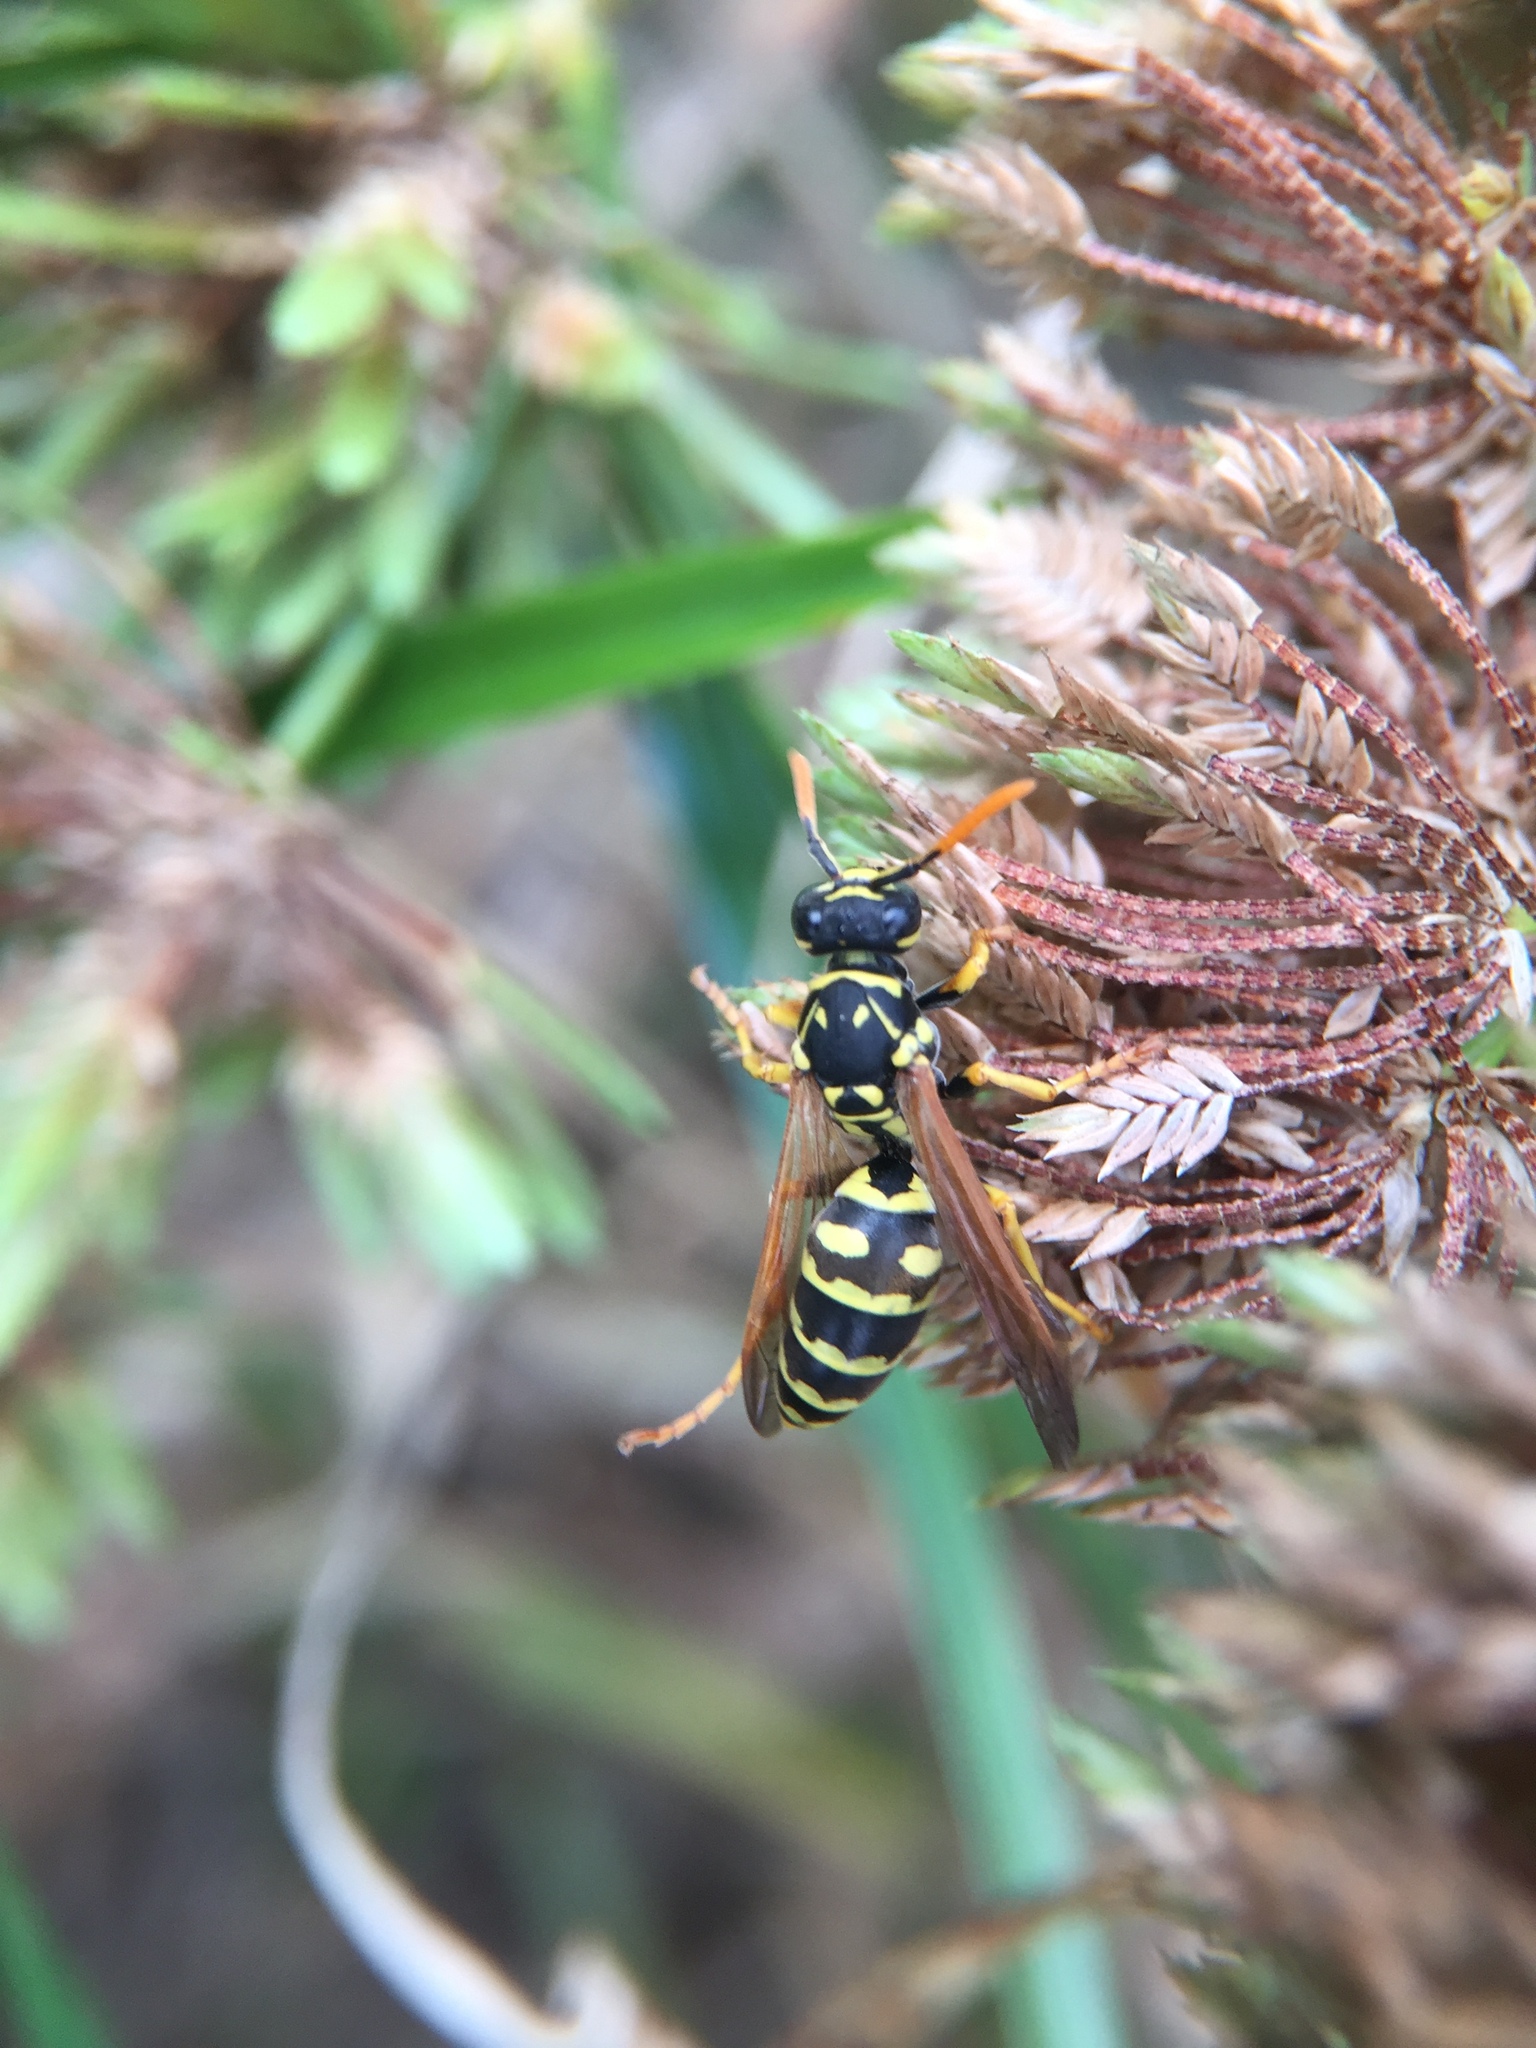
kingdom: Animalia
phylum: Arthropoda
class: Insecta
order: Hymenoptera
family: Eumenidae
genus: Polistes
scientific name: Polistes dominula
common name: Paper wasp
